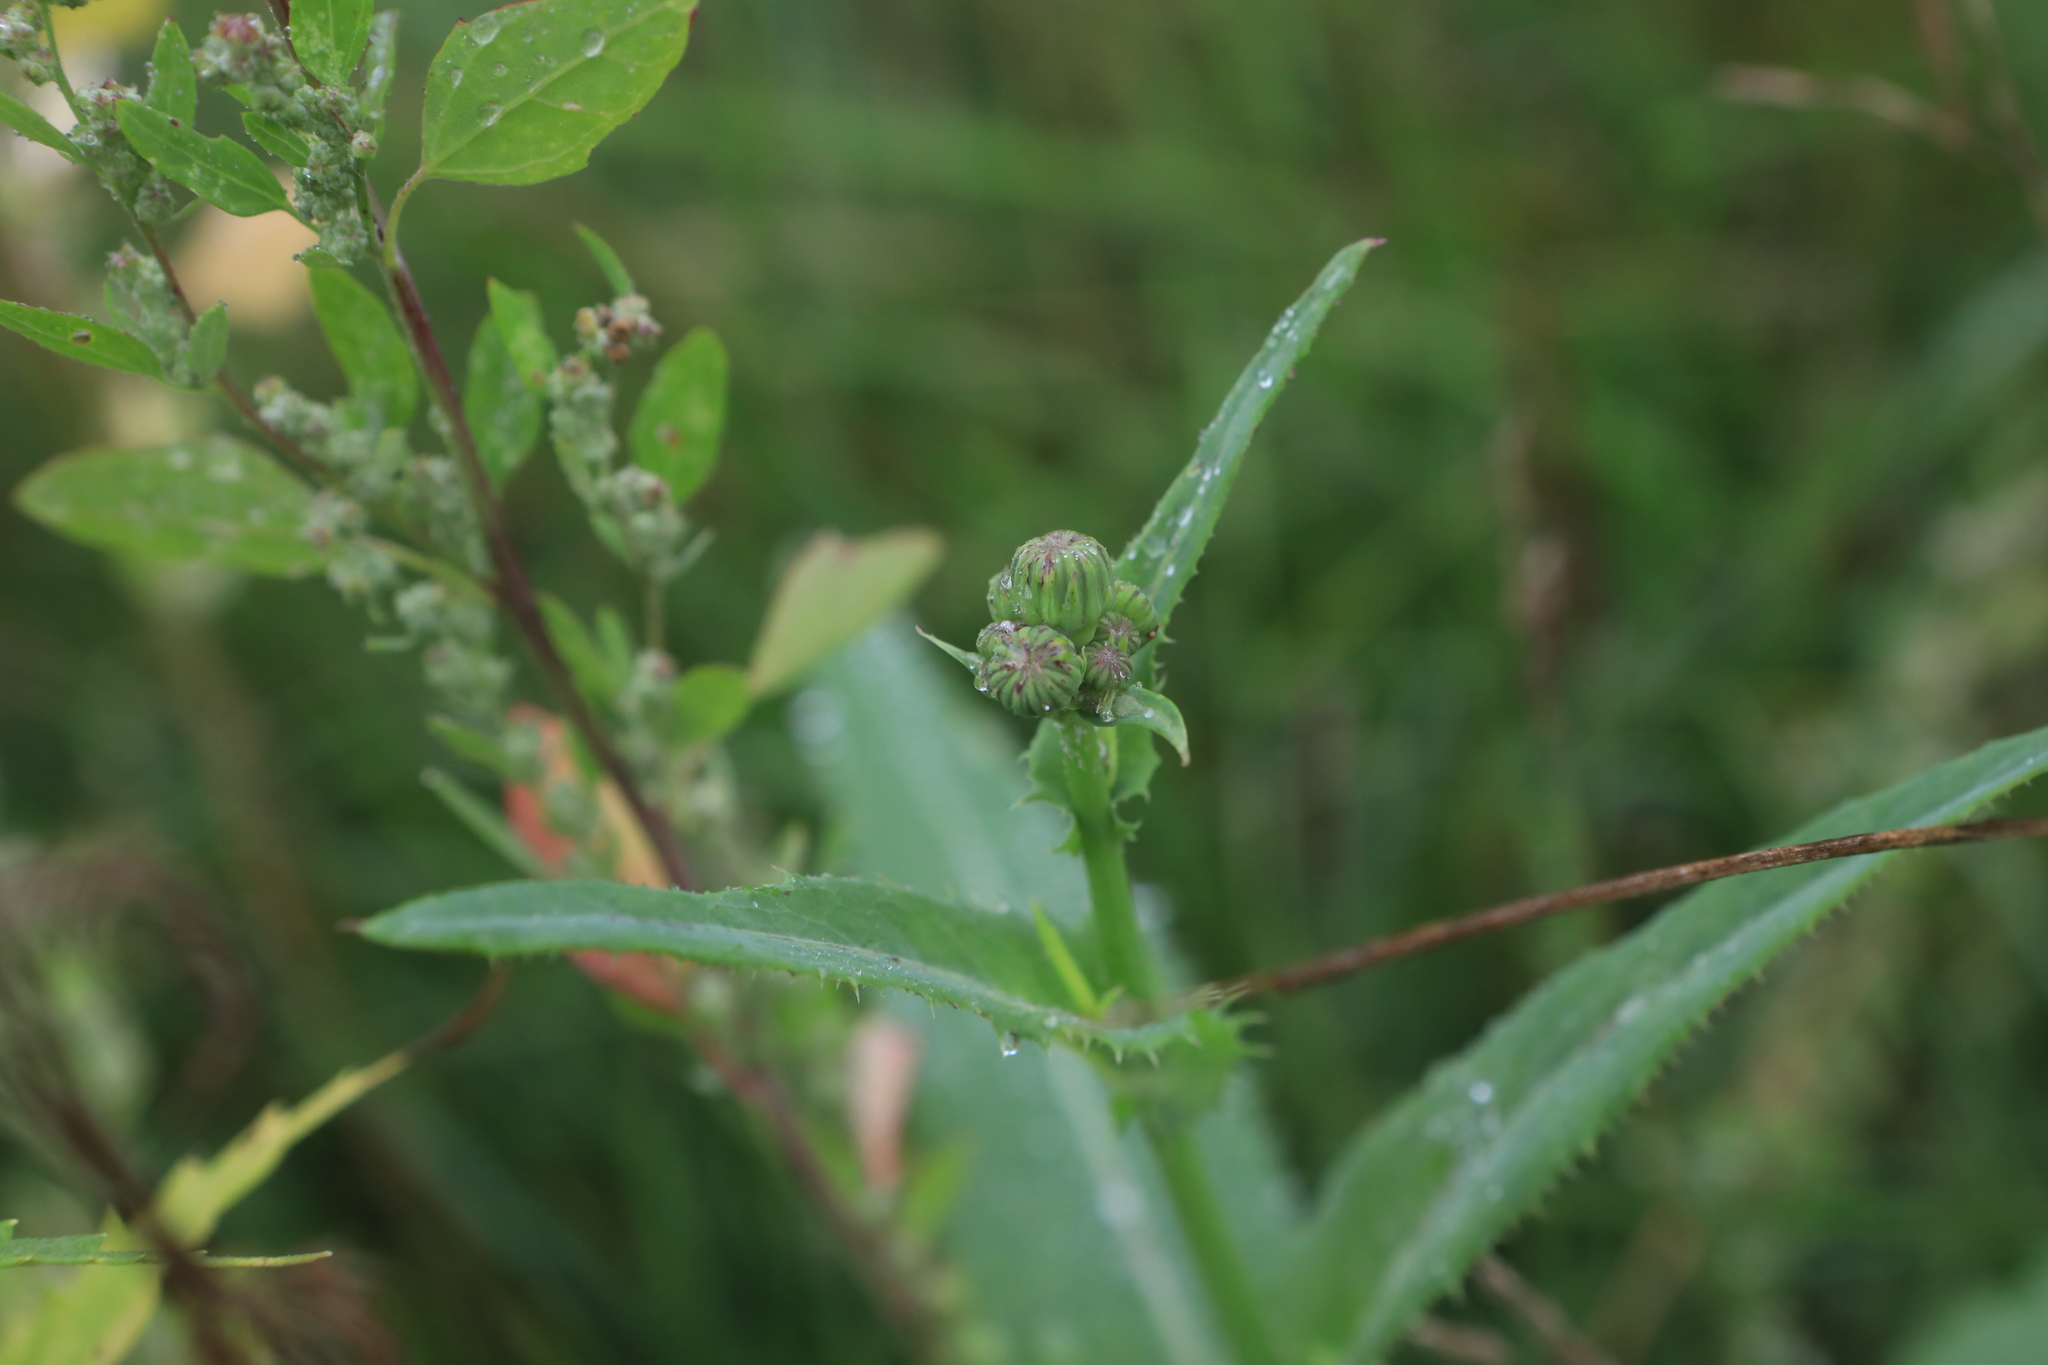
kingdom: Plantae
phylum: Tracheophyta
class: Magnoliopsida
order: Asterales
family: Asteraceae
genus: Sonchus
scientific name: Sonchus arvensis
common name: Perennial sow-thistle
